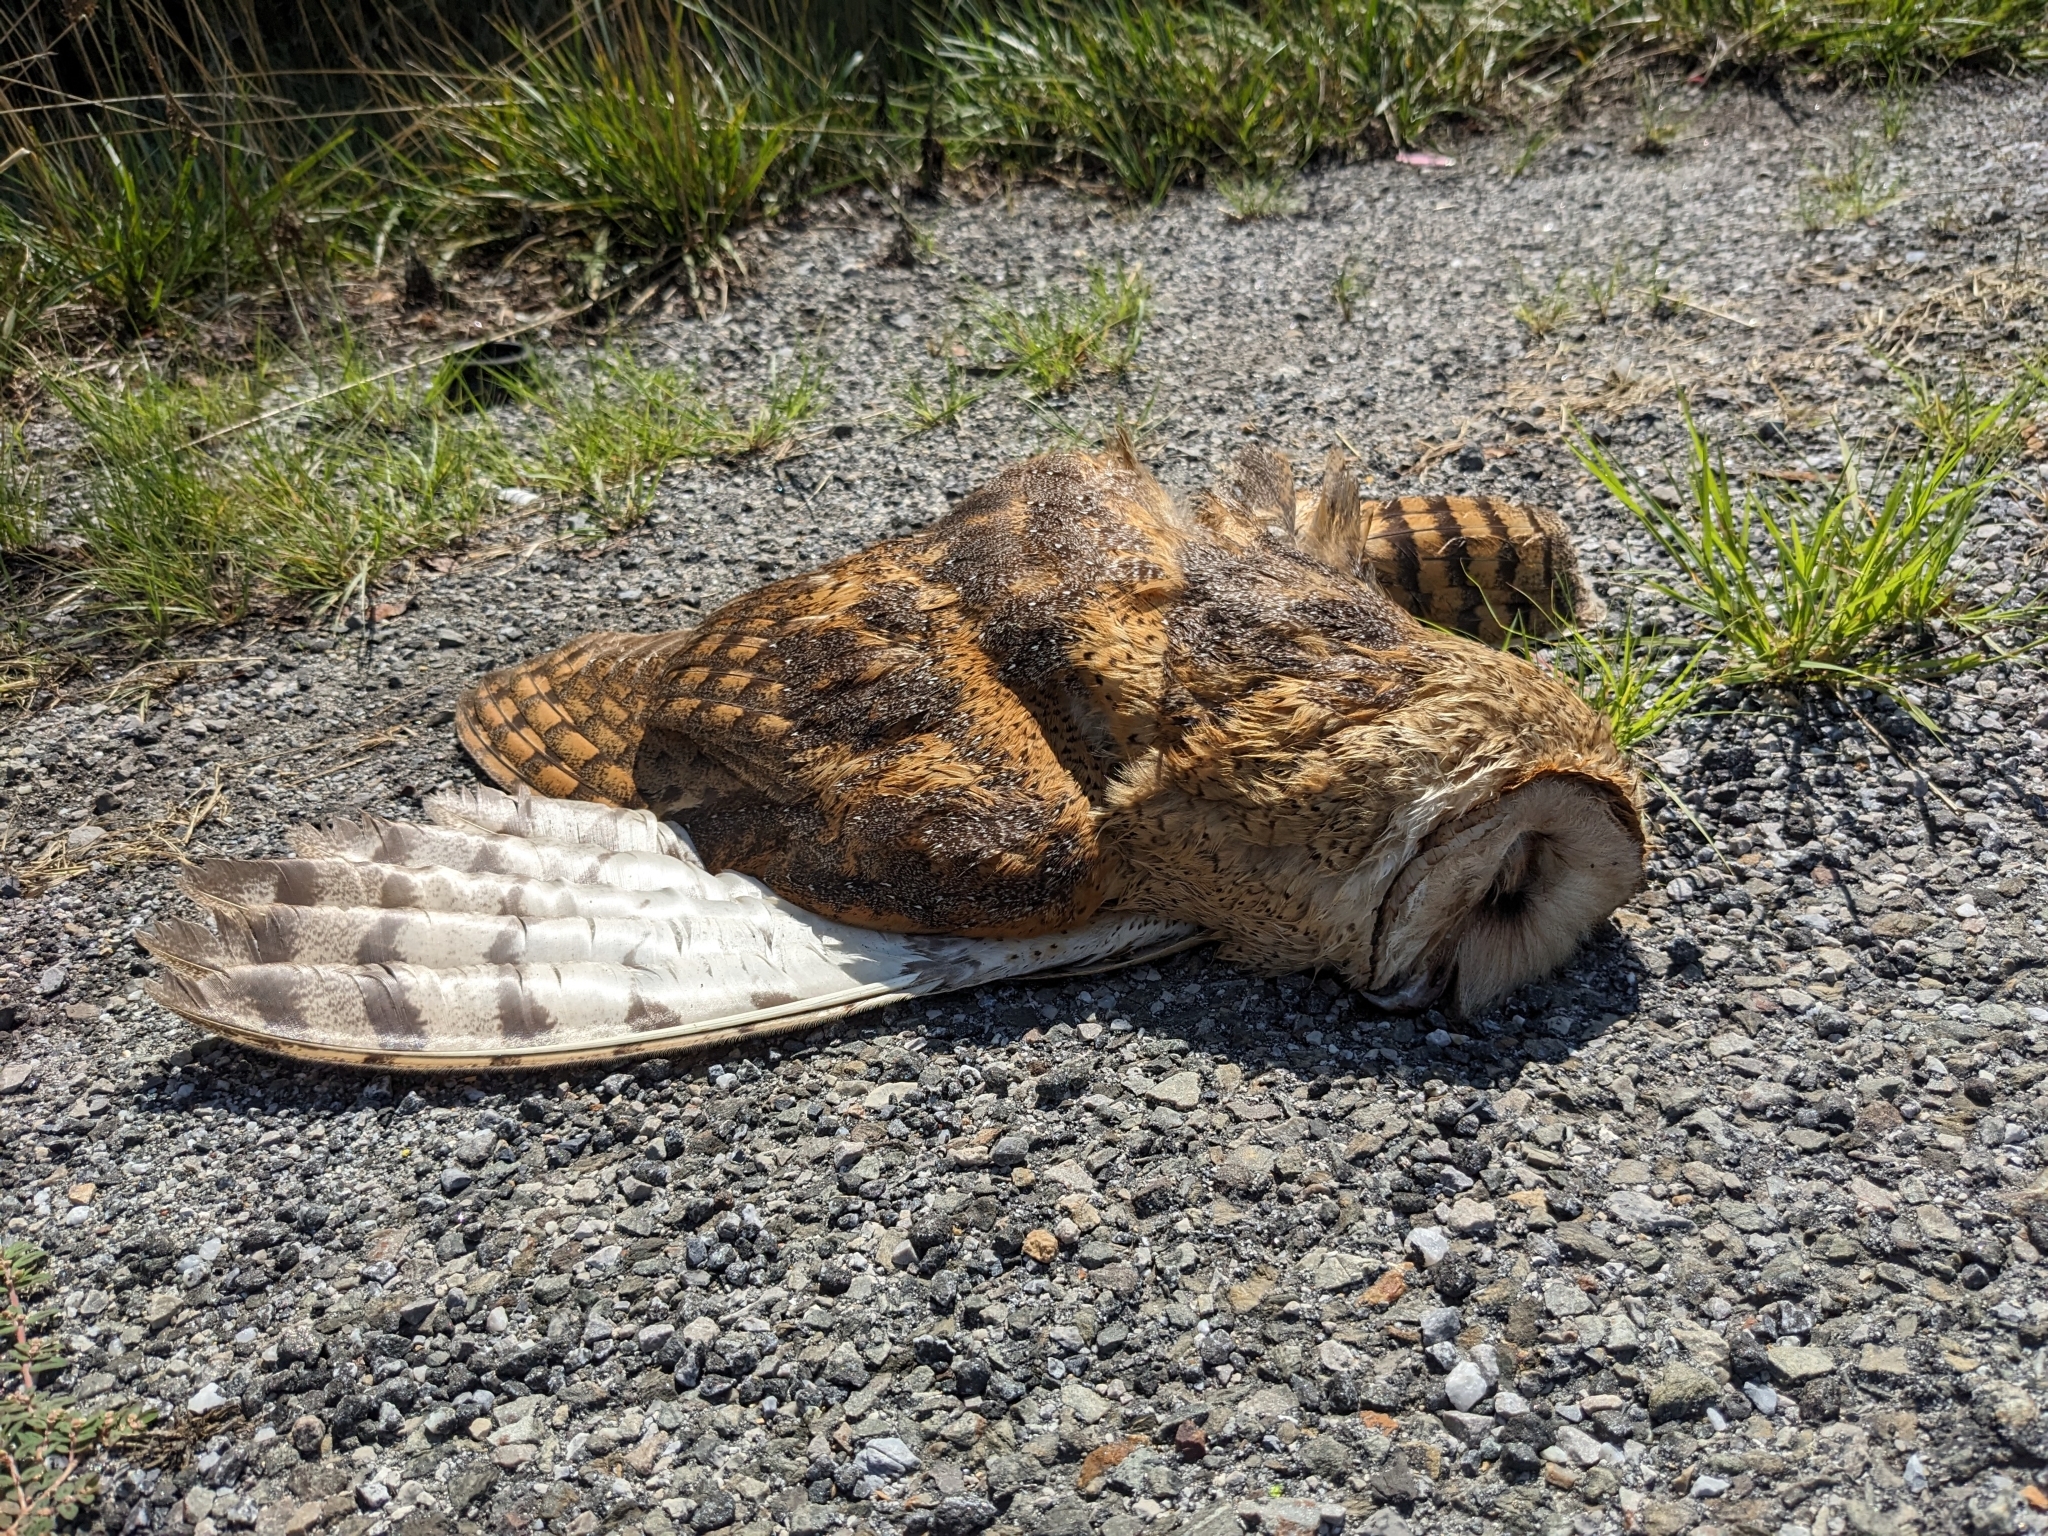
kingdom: Animalia
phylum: Chordata
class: Aves
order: Strigiformes
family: Tytonidae
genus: Tyto
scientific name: Tyto alba
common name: Barn owl
